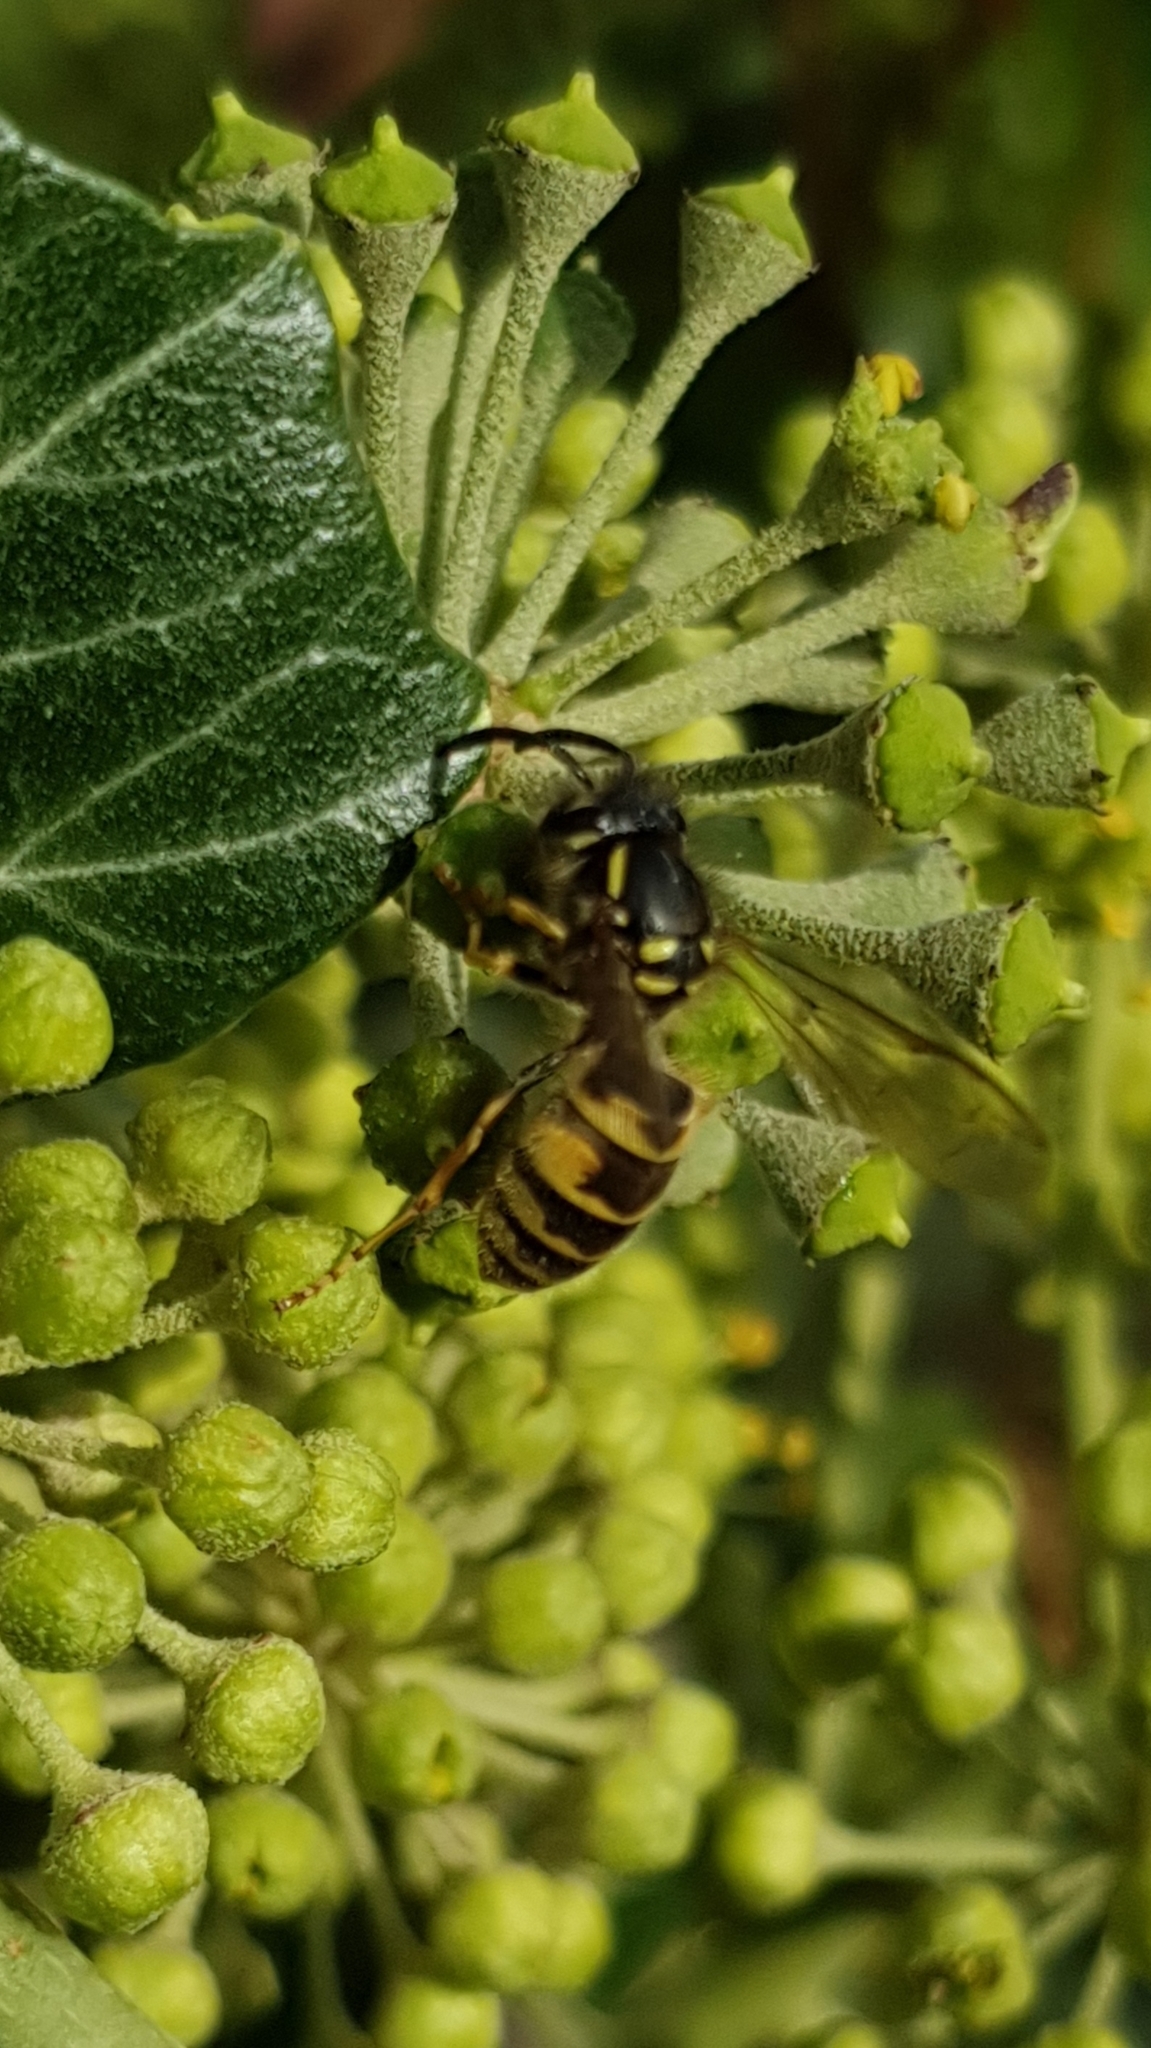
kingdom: Animalia
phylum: Arthropoda
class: Insecta
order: Hymenoptera
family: Vespidae
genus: Vespula
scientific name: Vespula vulgaris
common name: Common wasp
